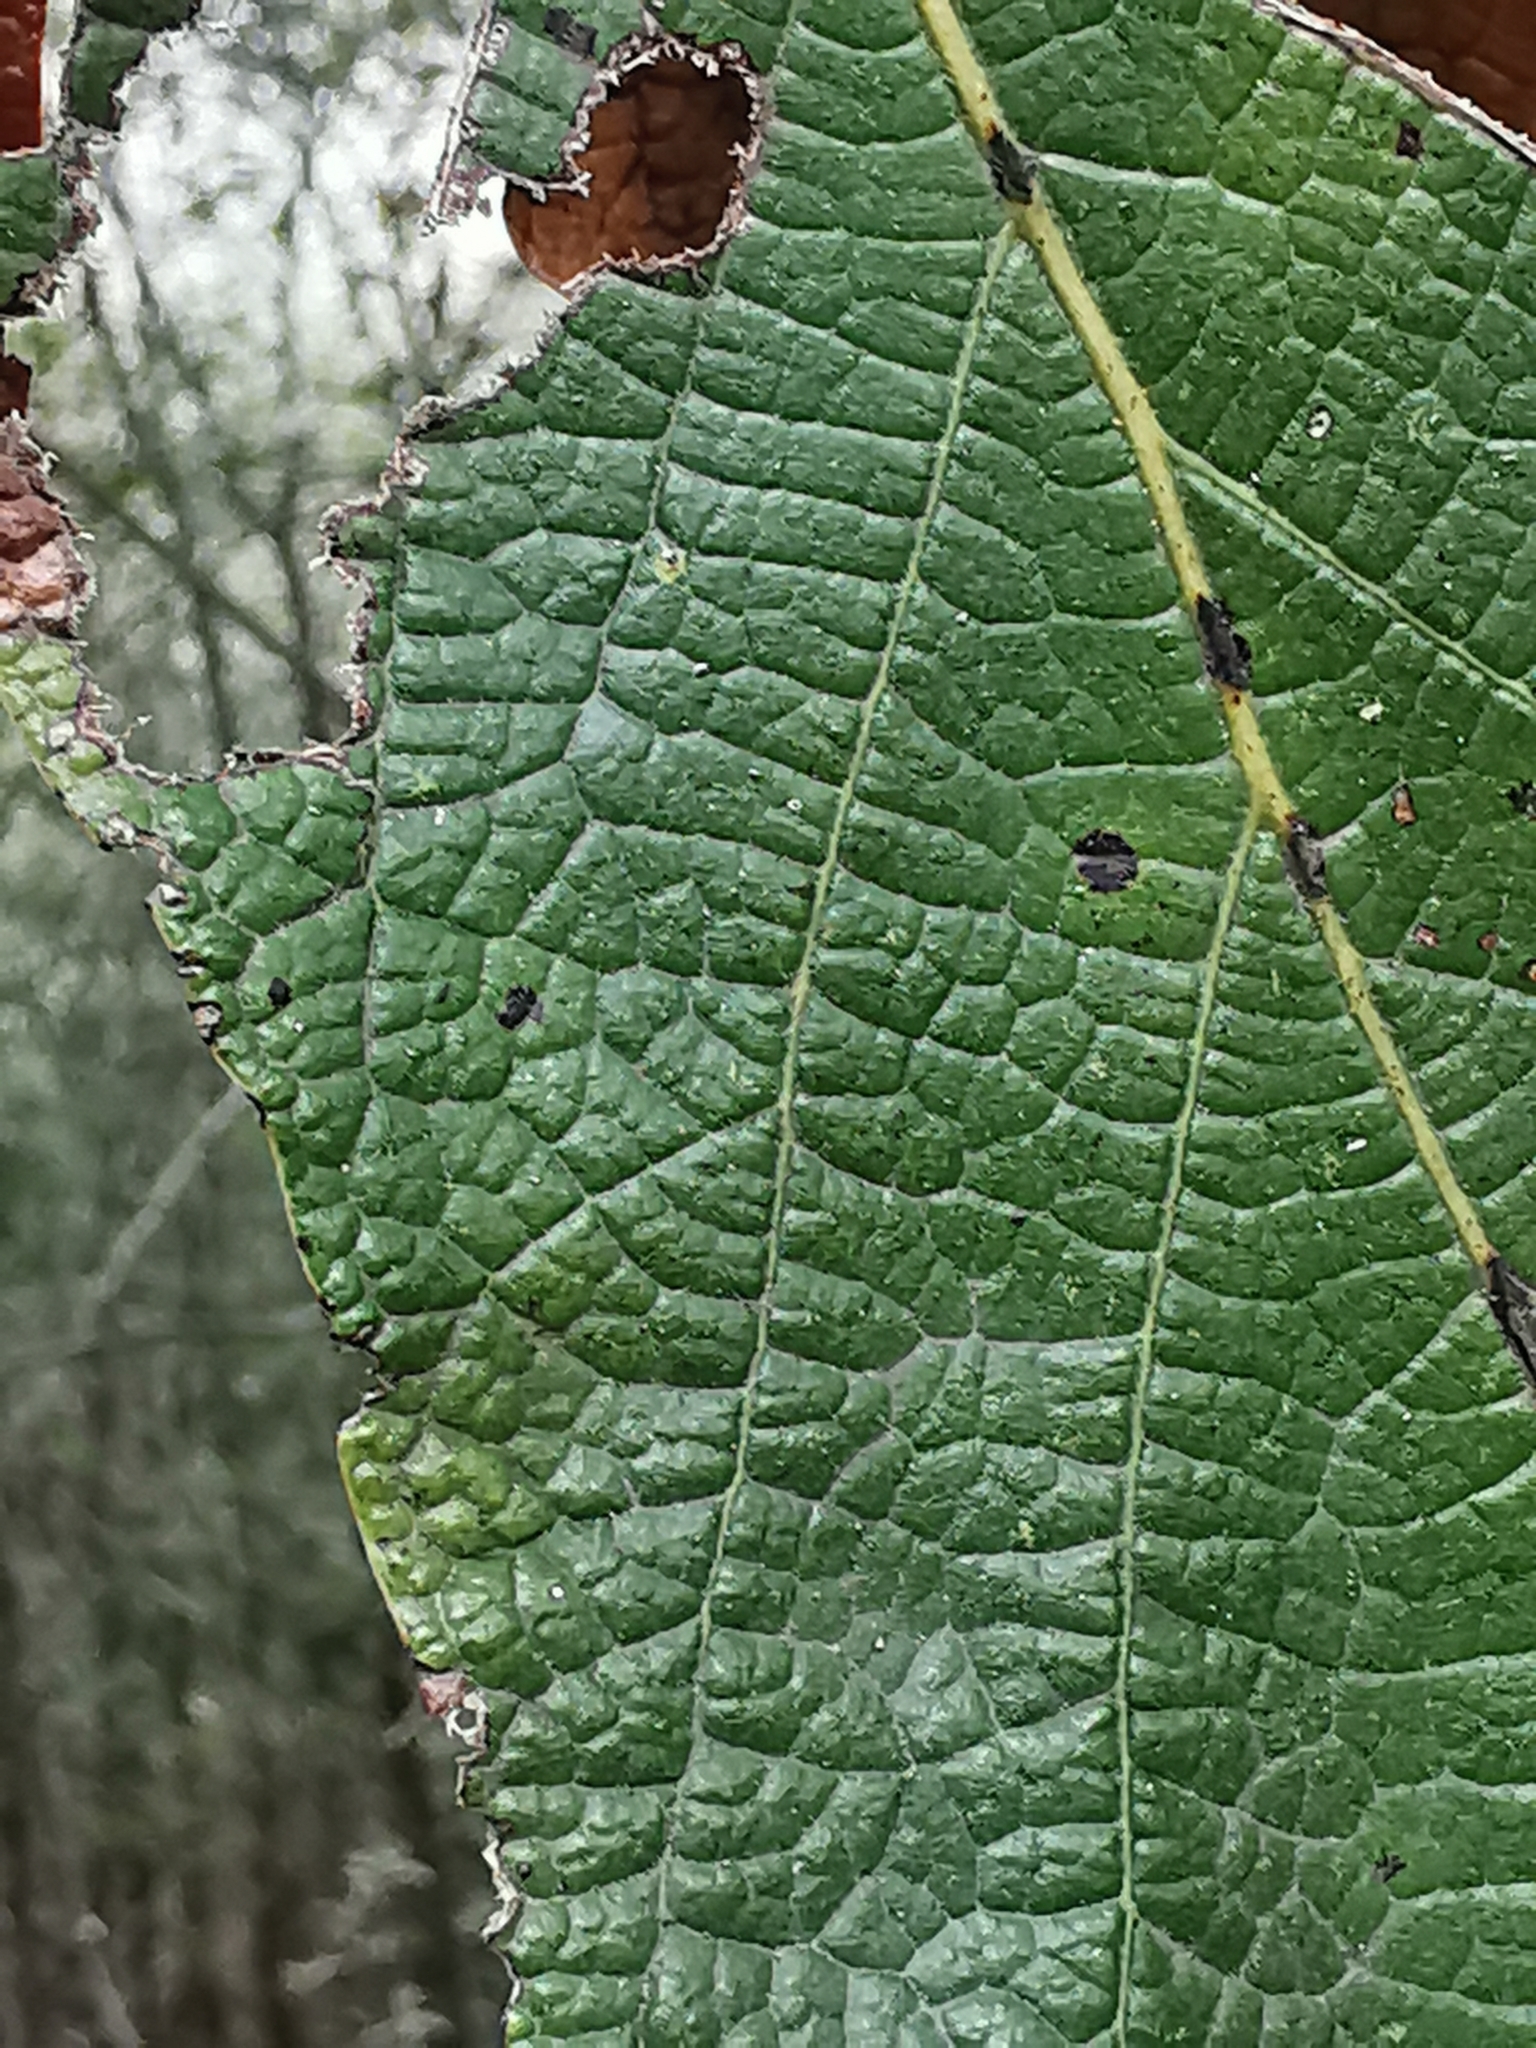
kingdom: Plantae
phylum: Tracheophyta
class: Magnoliopsida
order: Fagales
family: Fagaceae
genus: Quercus
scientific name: Quercus rysophylla
